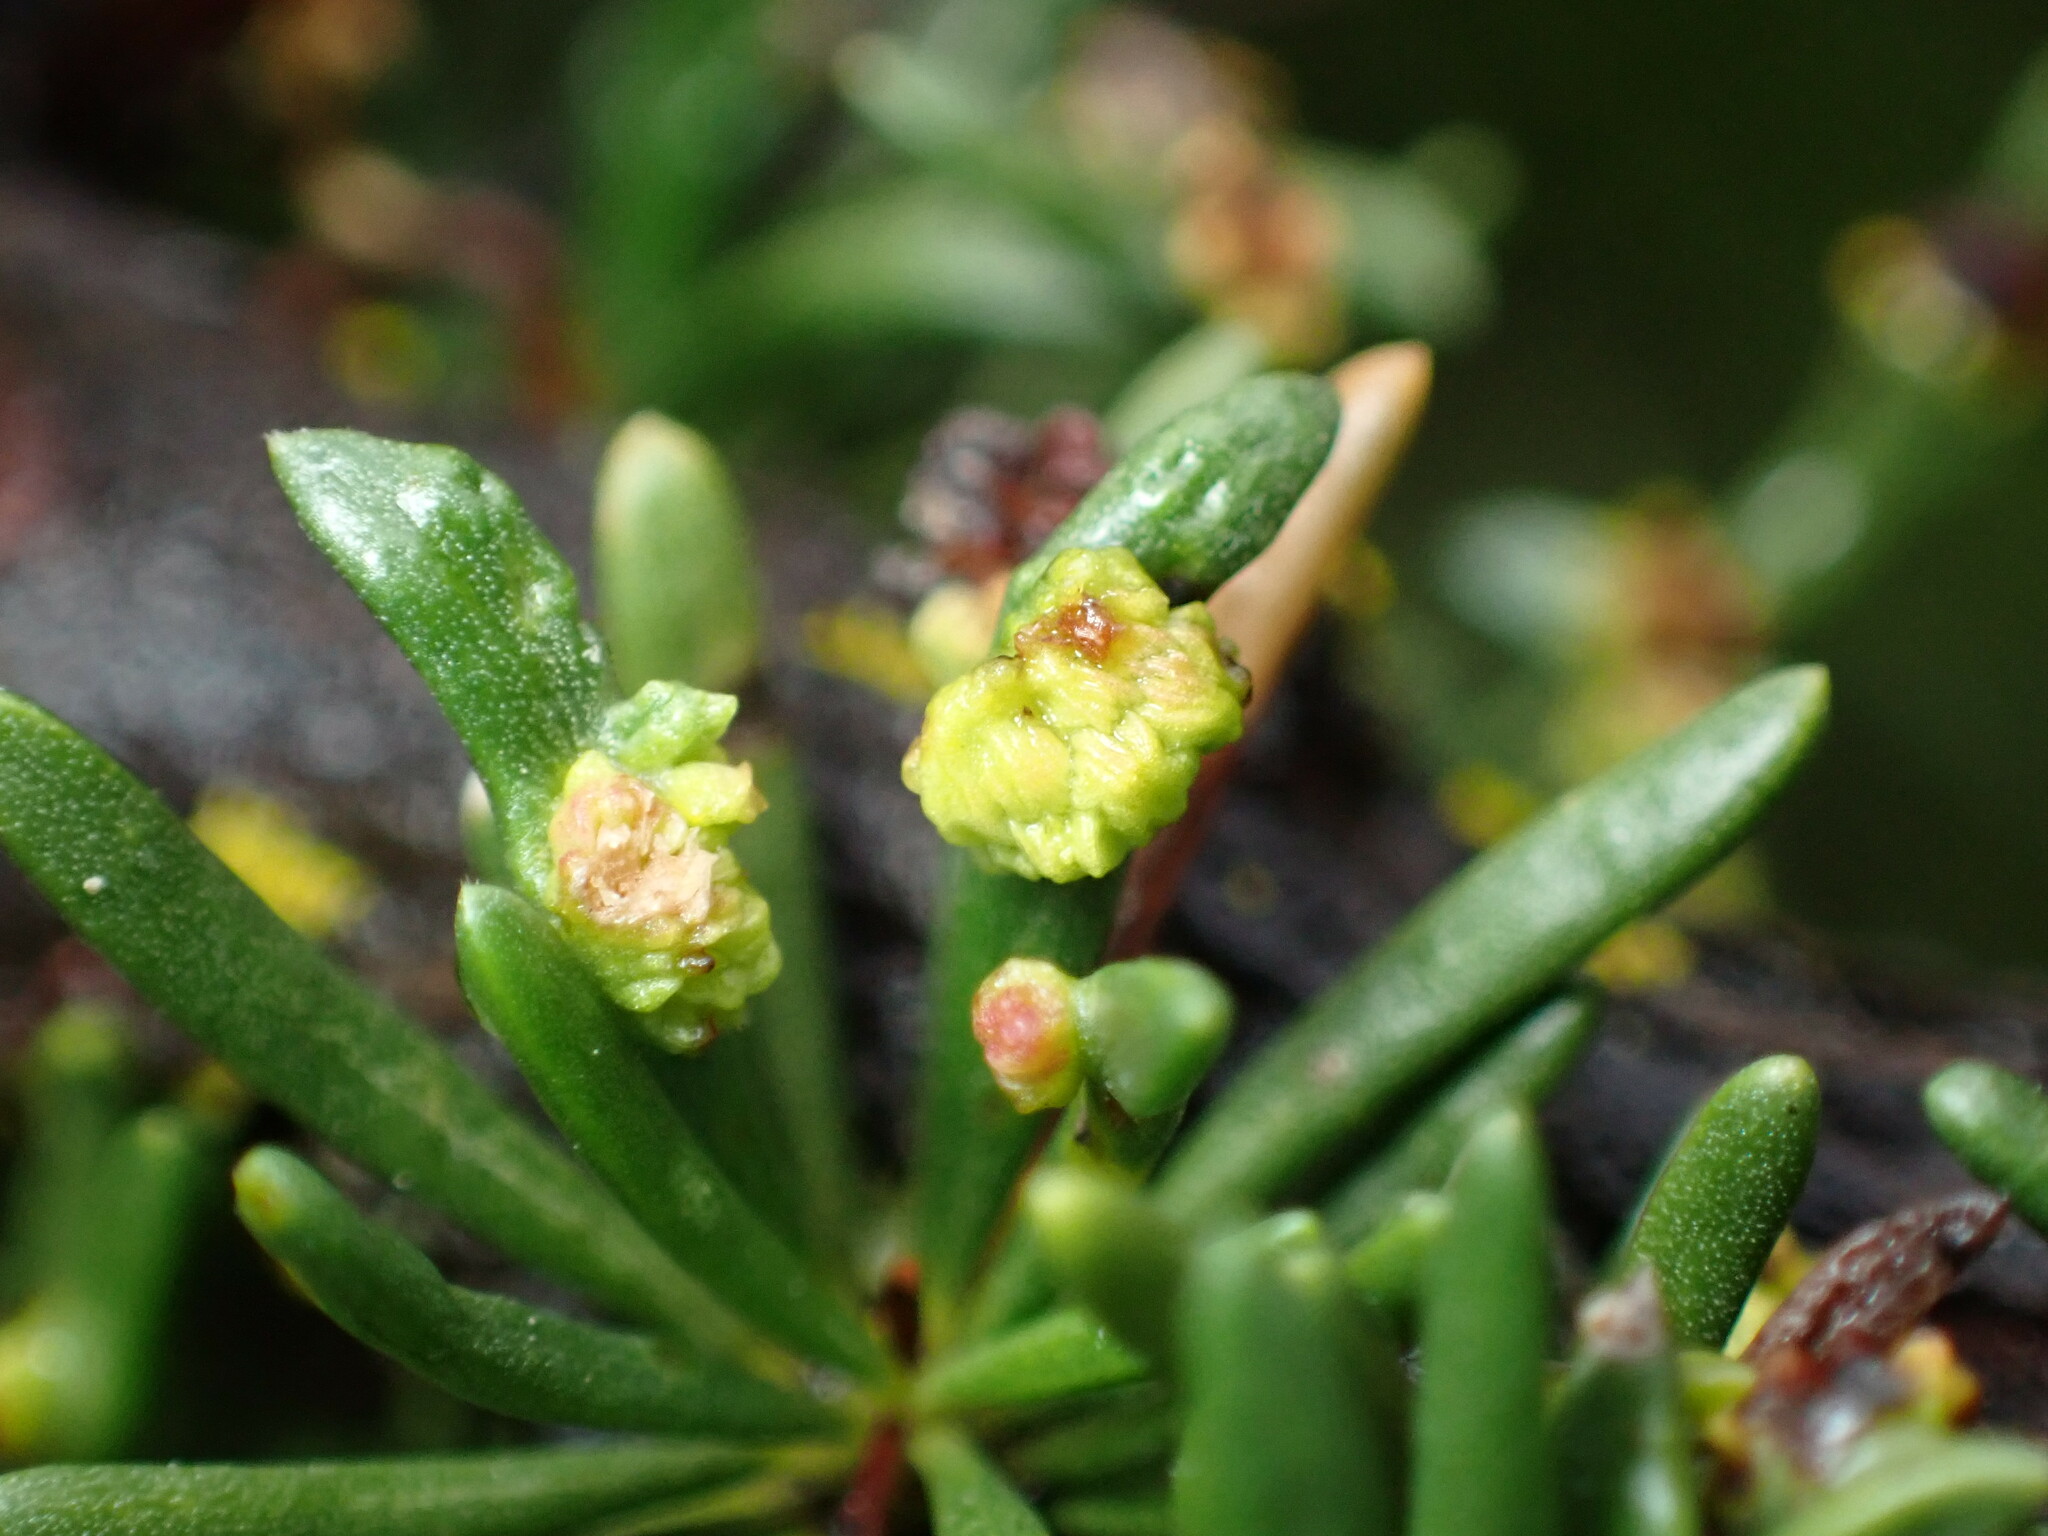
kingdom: Animalia
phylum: Arthropoda
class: Arachnida
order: Trombidiformes
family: Eriophyidae
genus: Eriophyes
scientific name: Eriophyes
